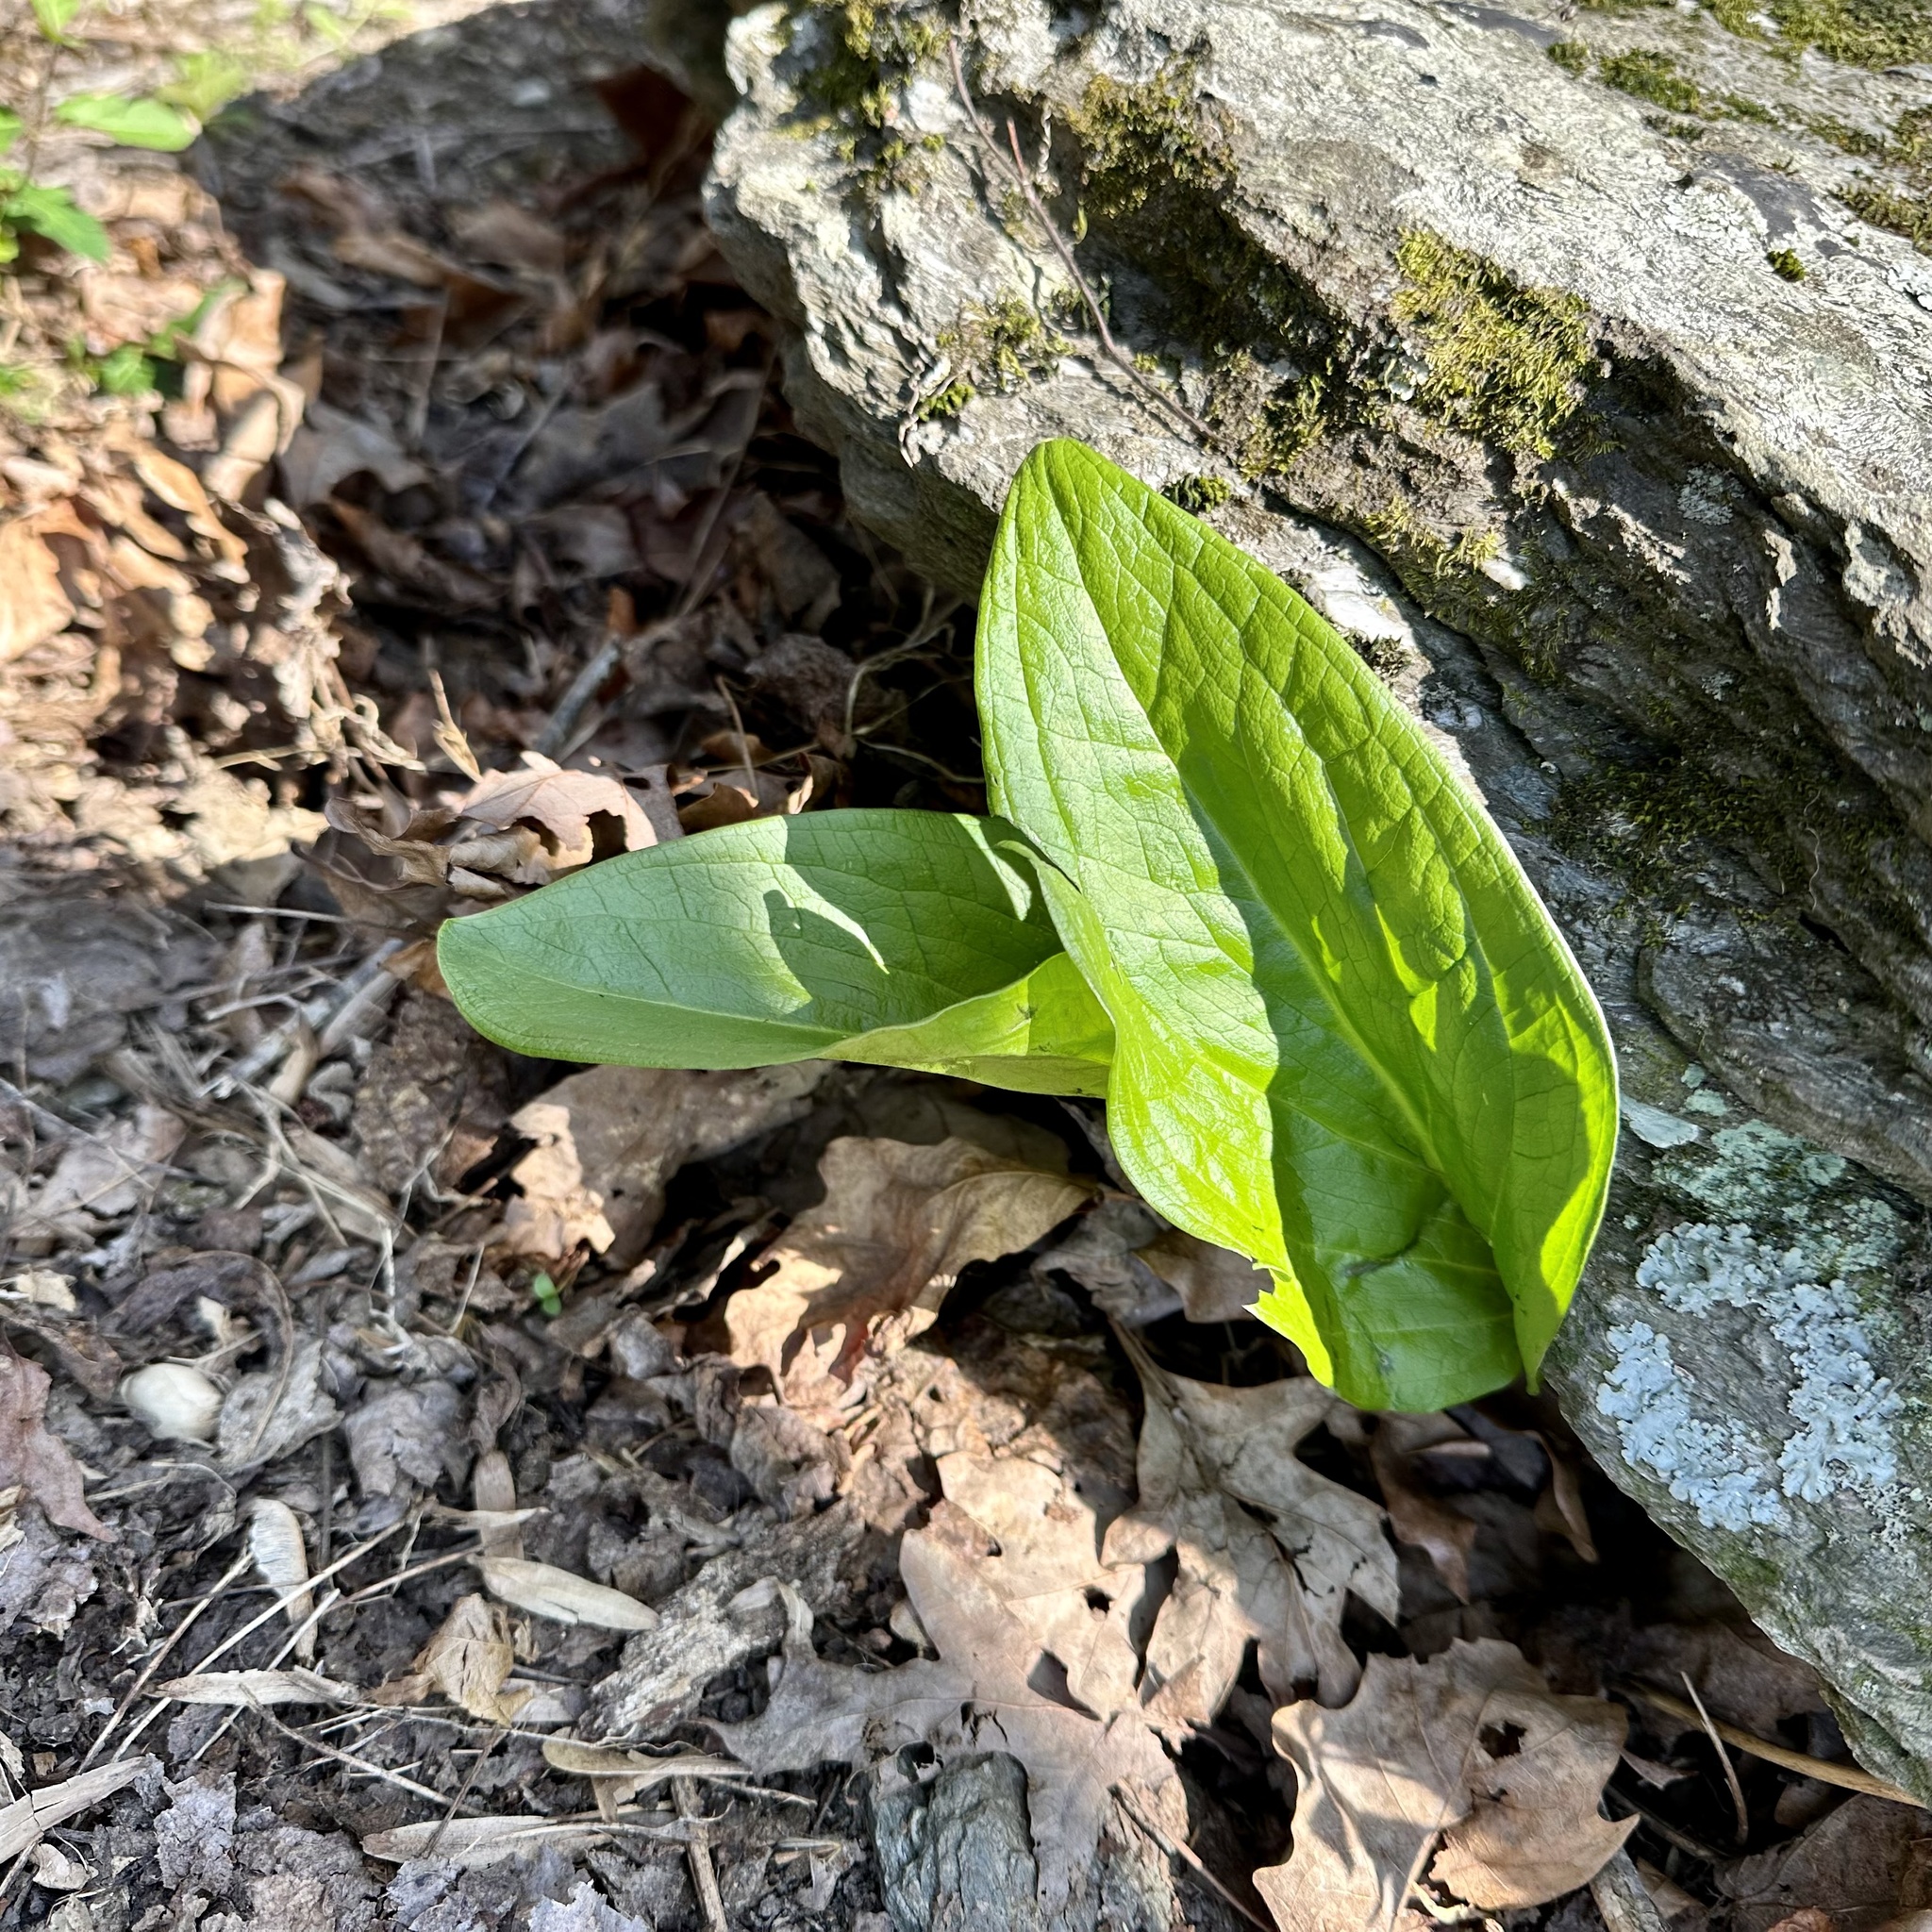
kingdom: Plantae
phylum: Tracheophyta
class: Liliopsida
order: Alismatales
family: Araceae
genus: Symplocarpus
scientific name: Symplocarpus foetidus
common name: Eastern skunk cabbage
